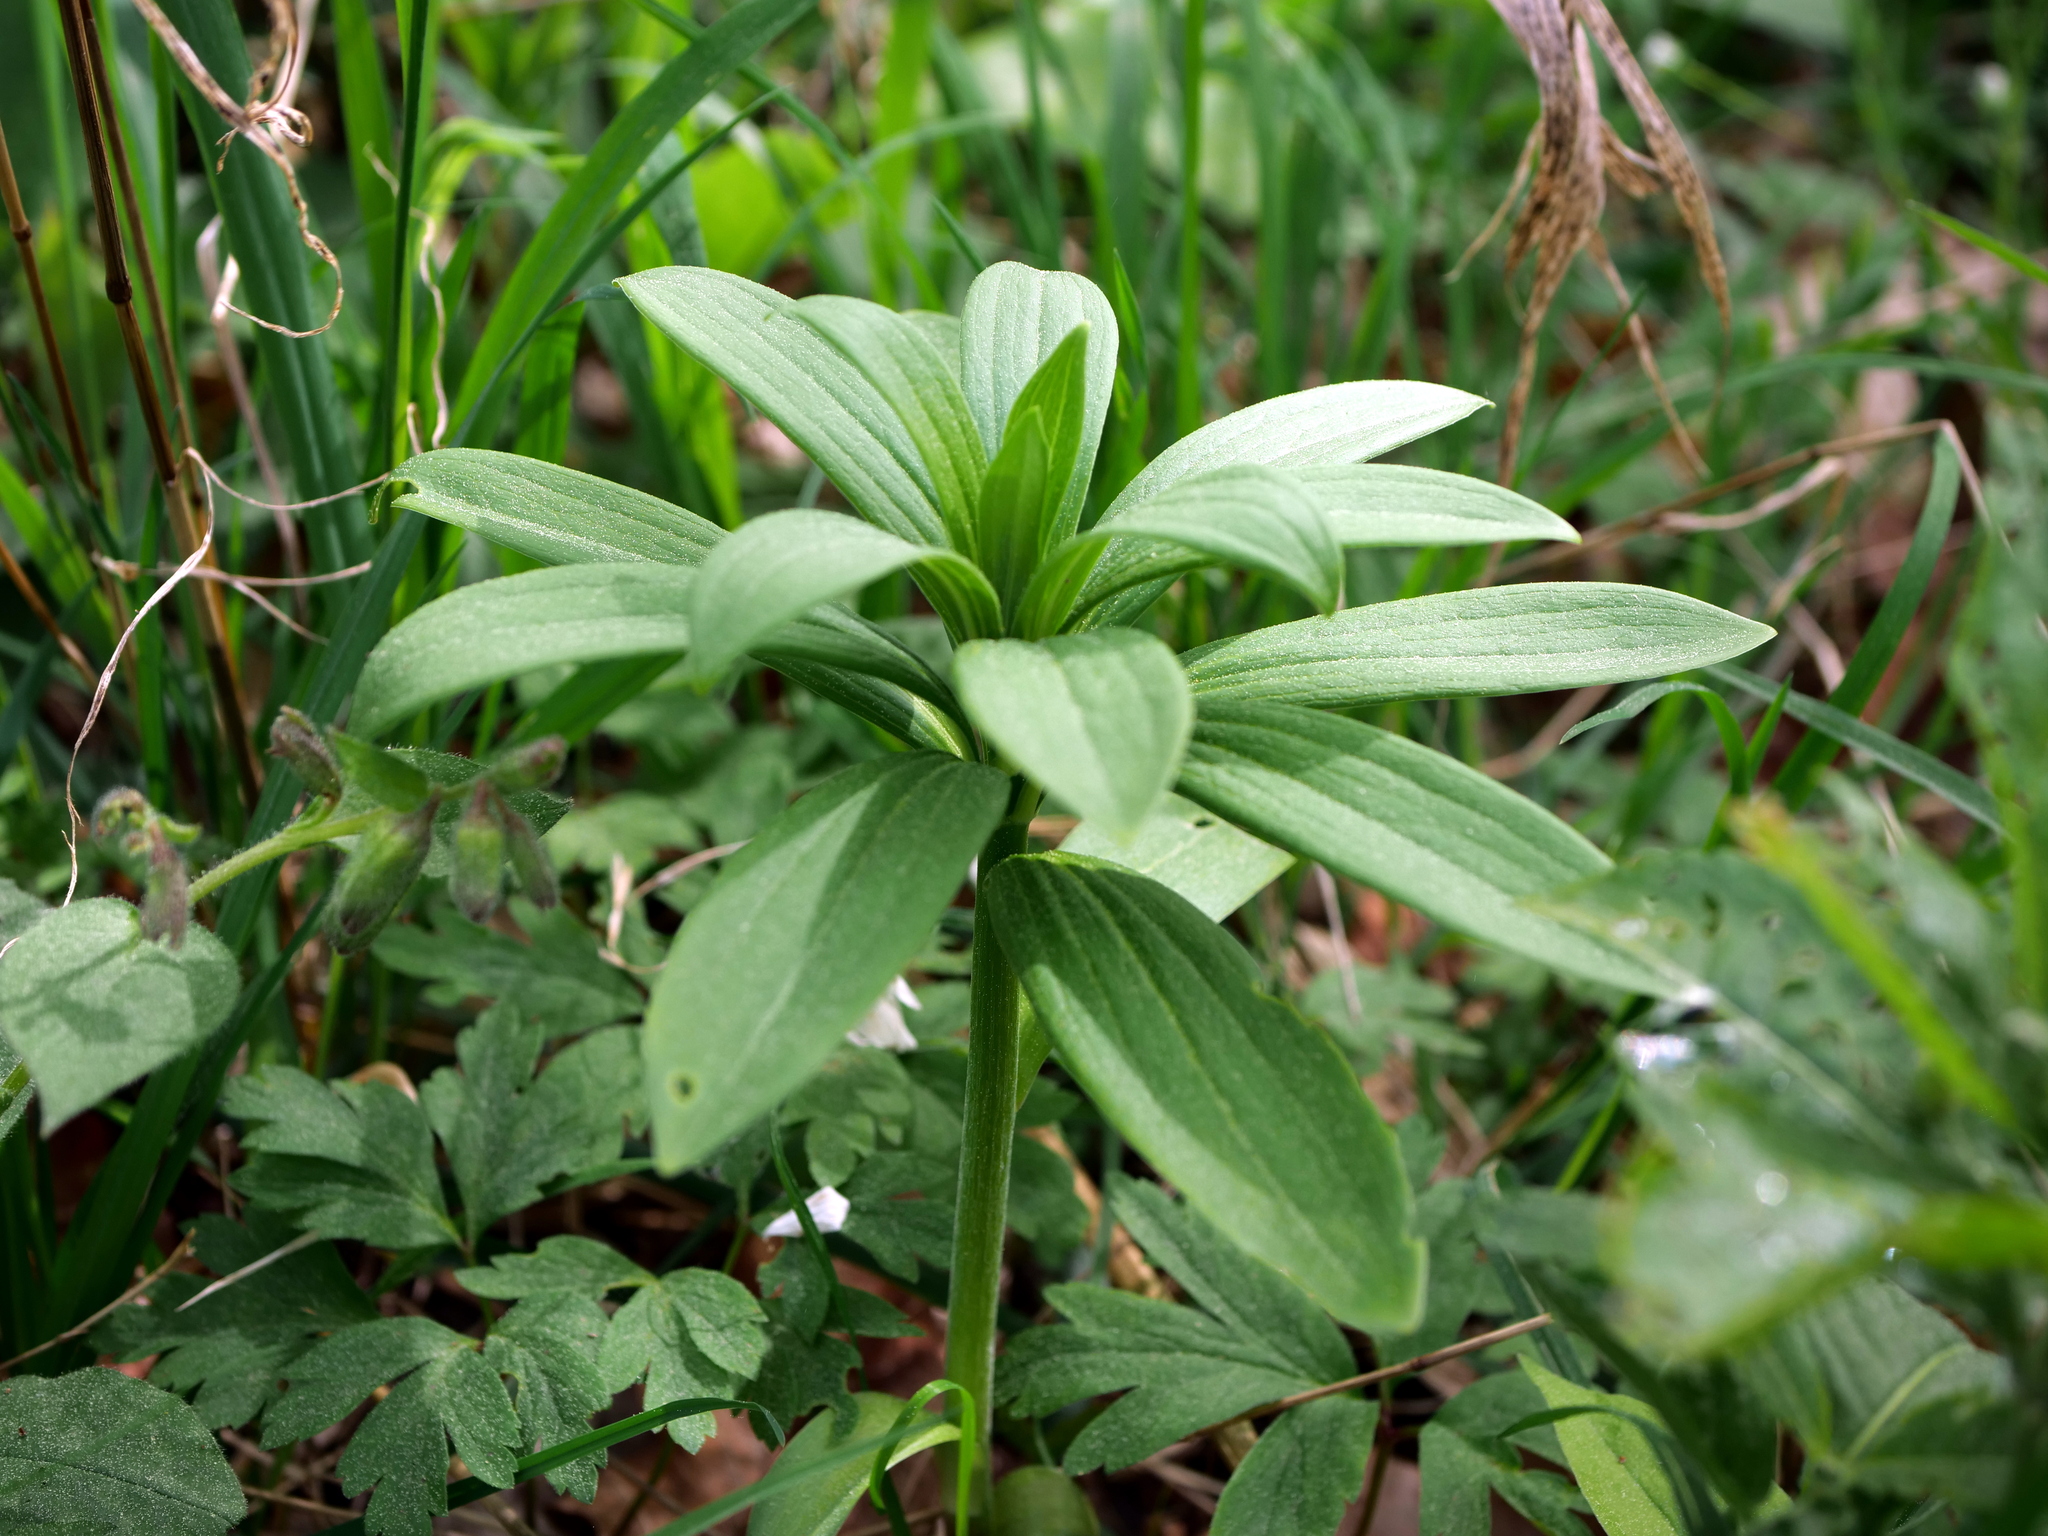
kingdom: Plantae
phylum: Tracheophyta
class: Liliopsida
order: Liliales
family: Liliaceae
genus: Lilium
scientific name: Lilium martagon
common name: Martagon lily
